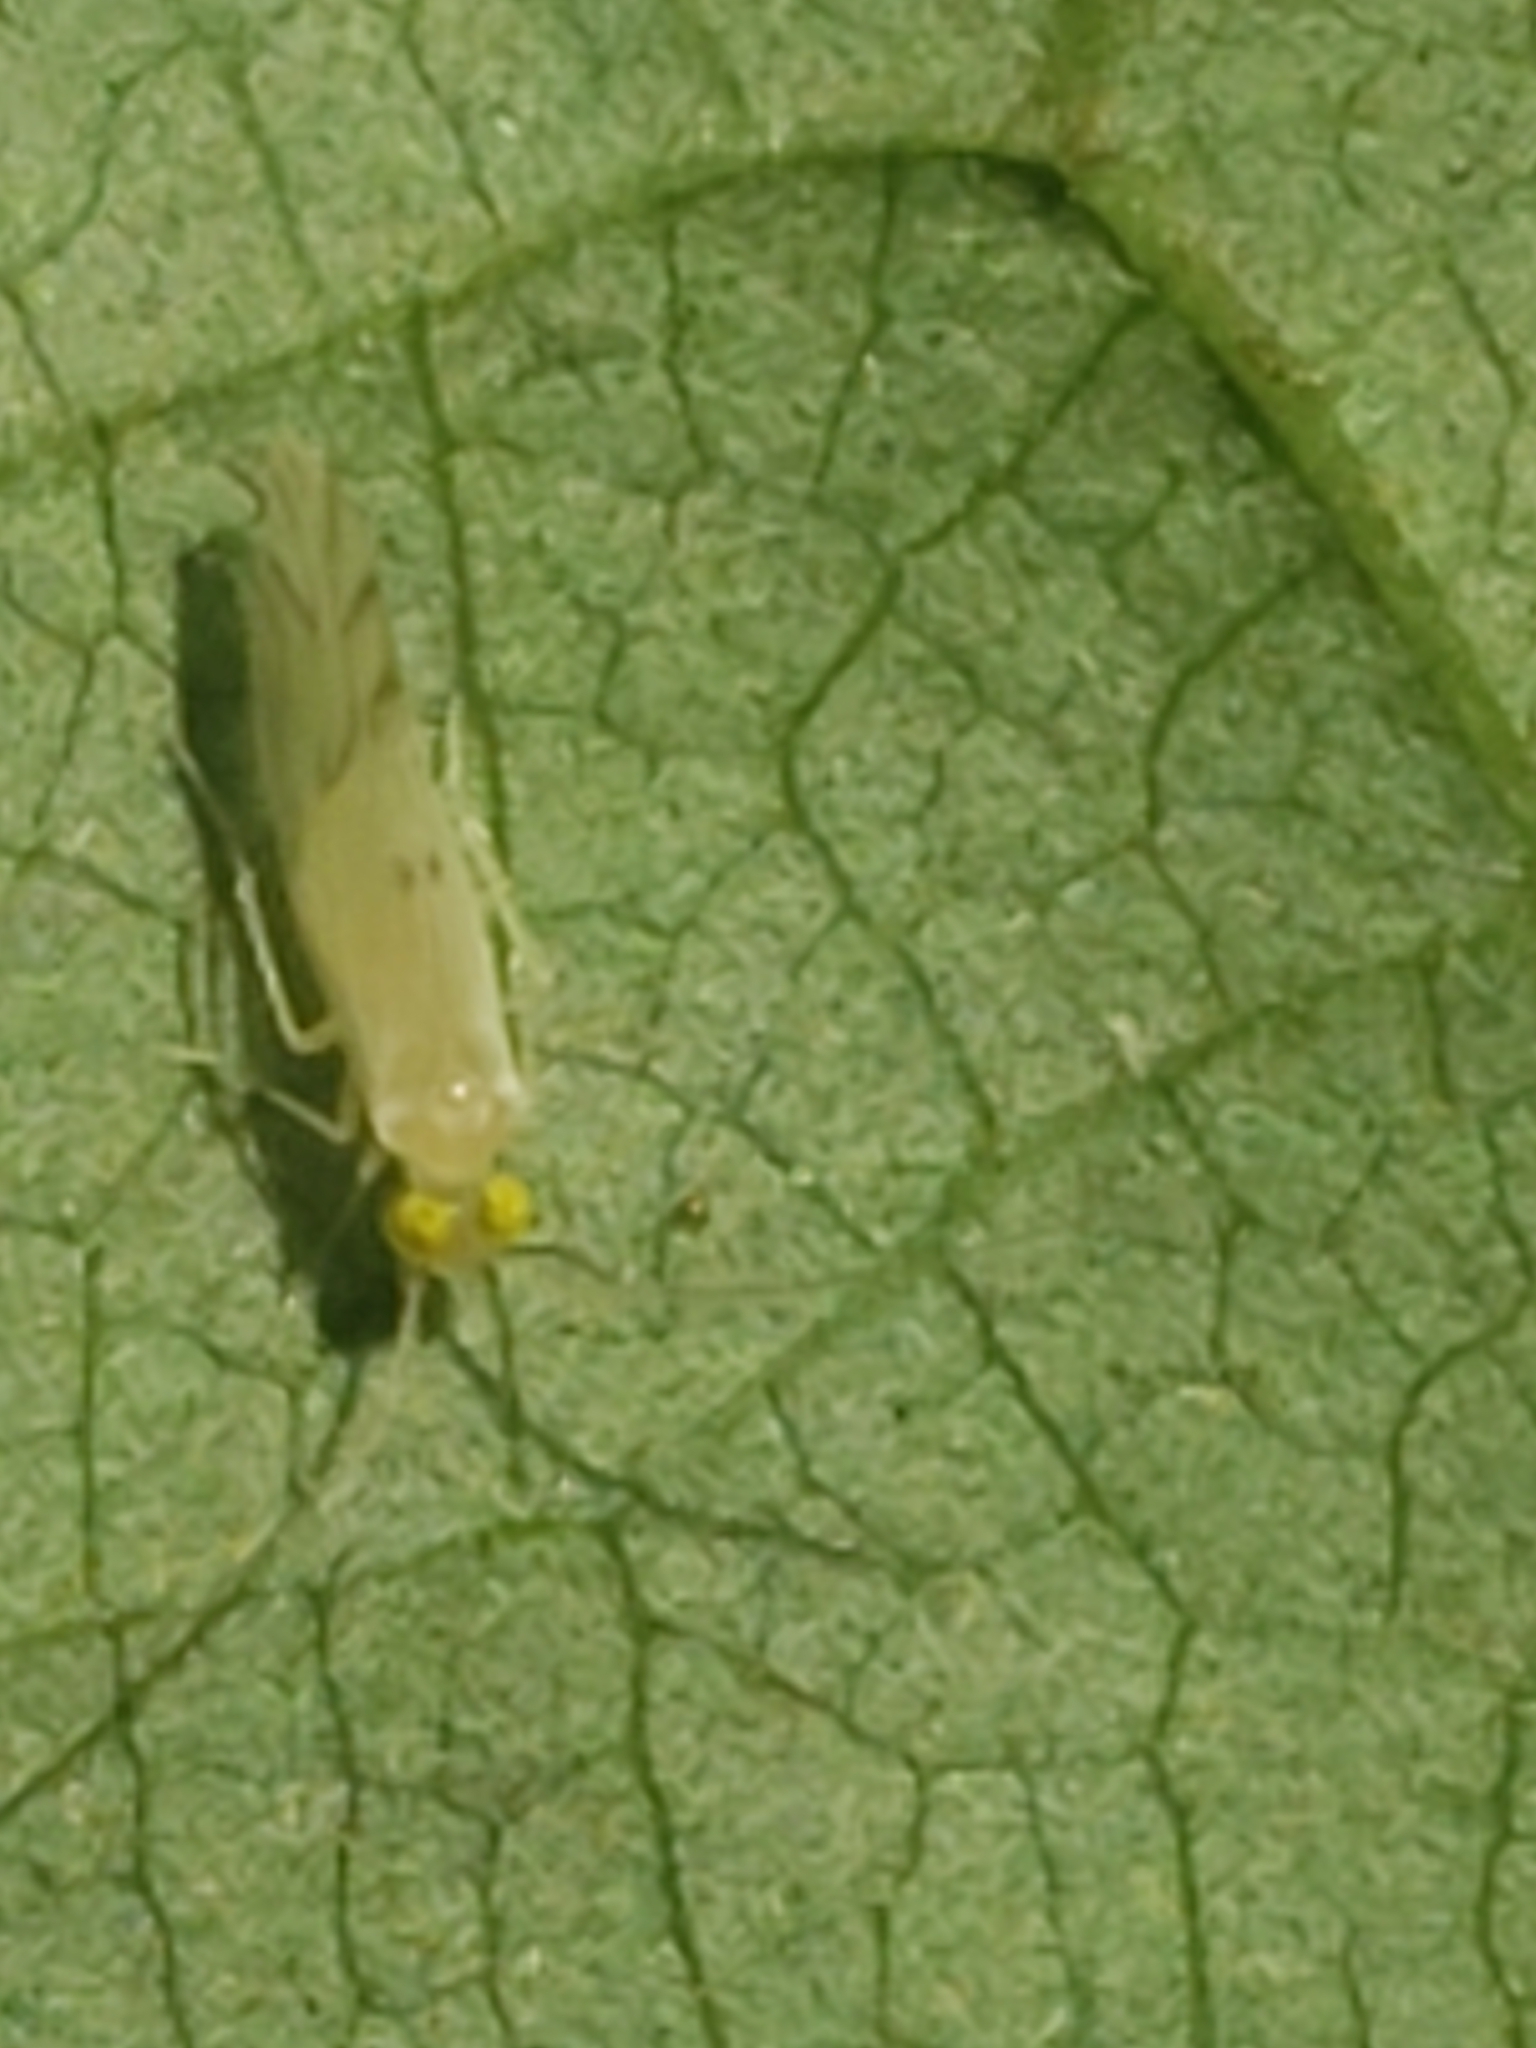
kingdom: Animalia
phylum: Arthropoda
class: Insecta
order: Psocodea
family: Paracaeciliidae
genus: Xanthocaecilius
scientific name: Xanthocaecilius sommermanae
